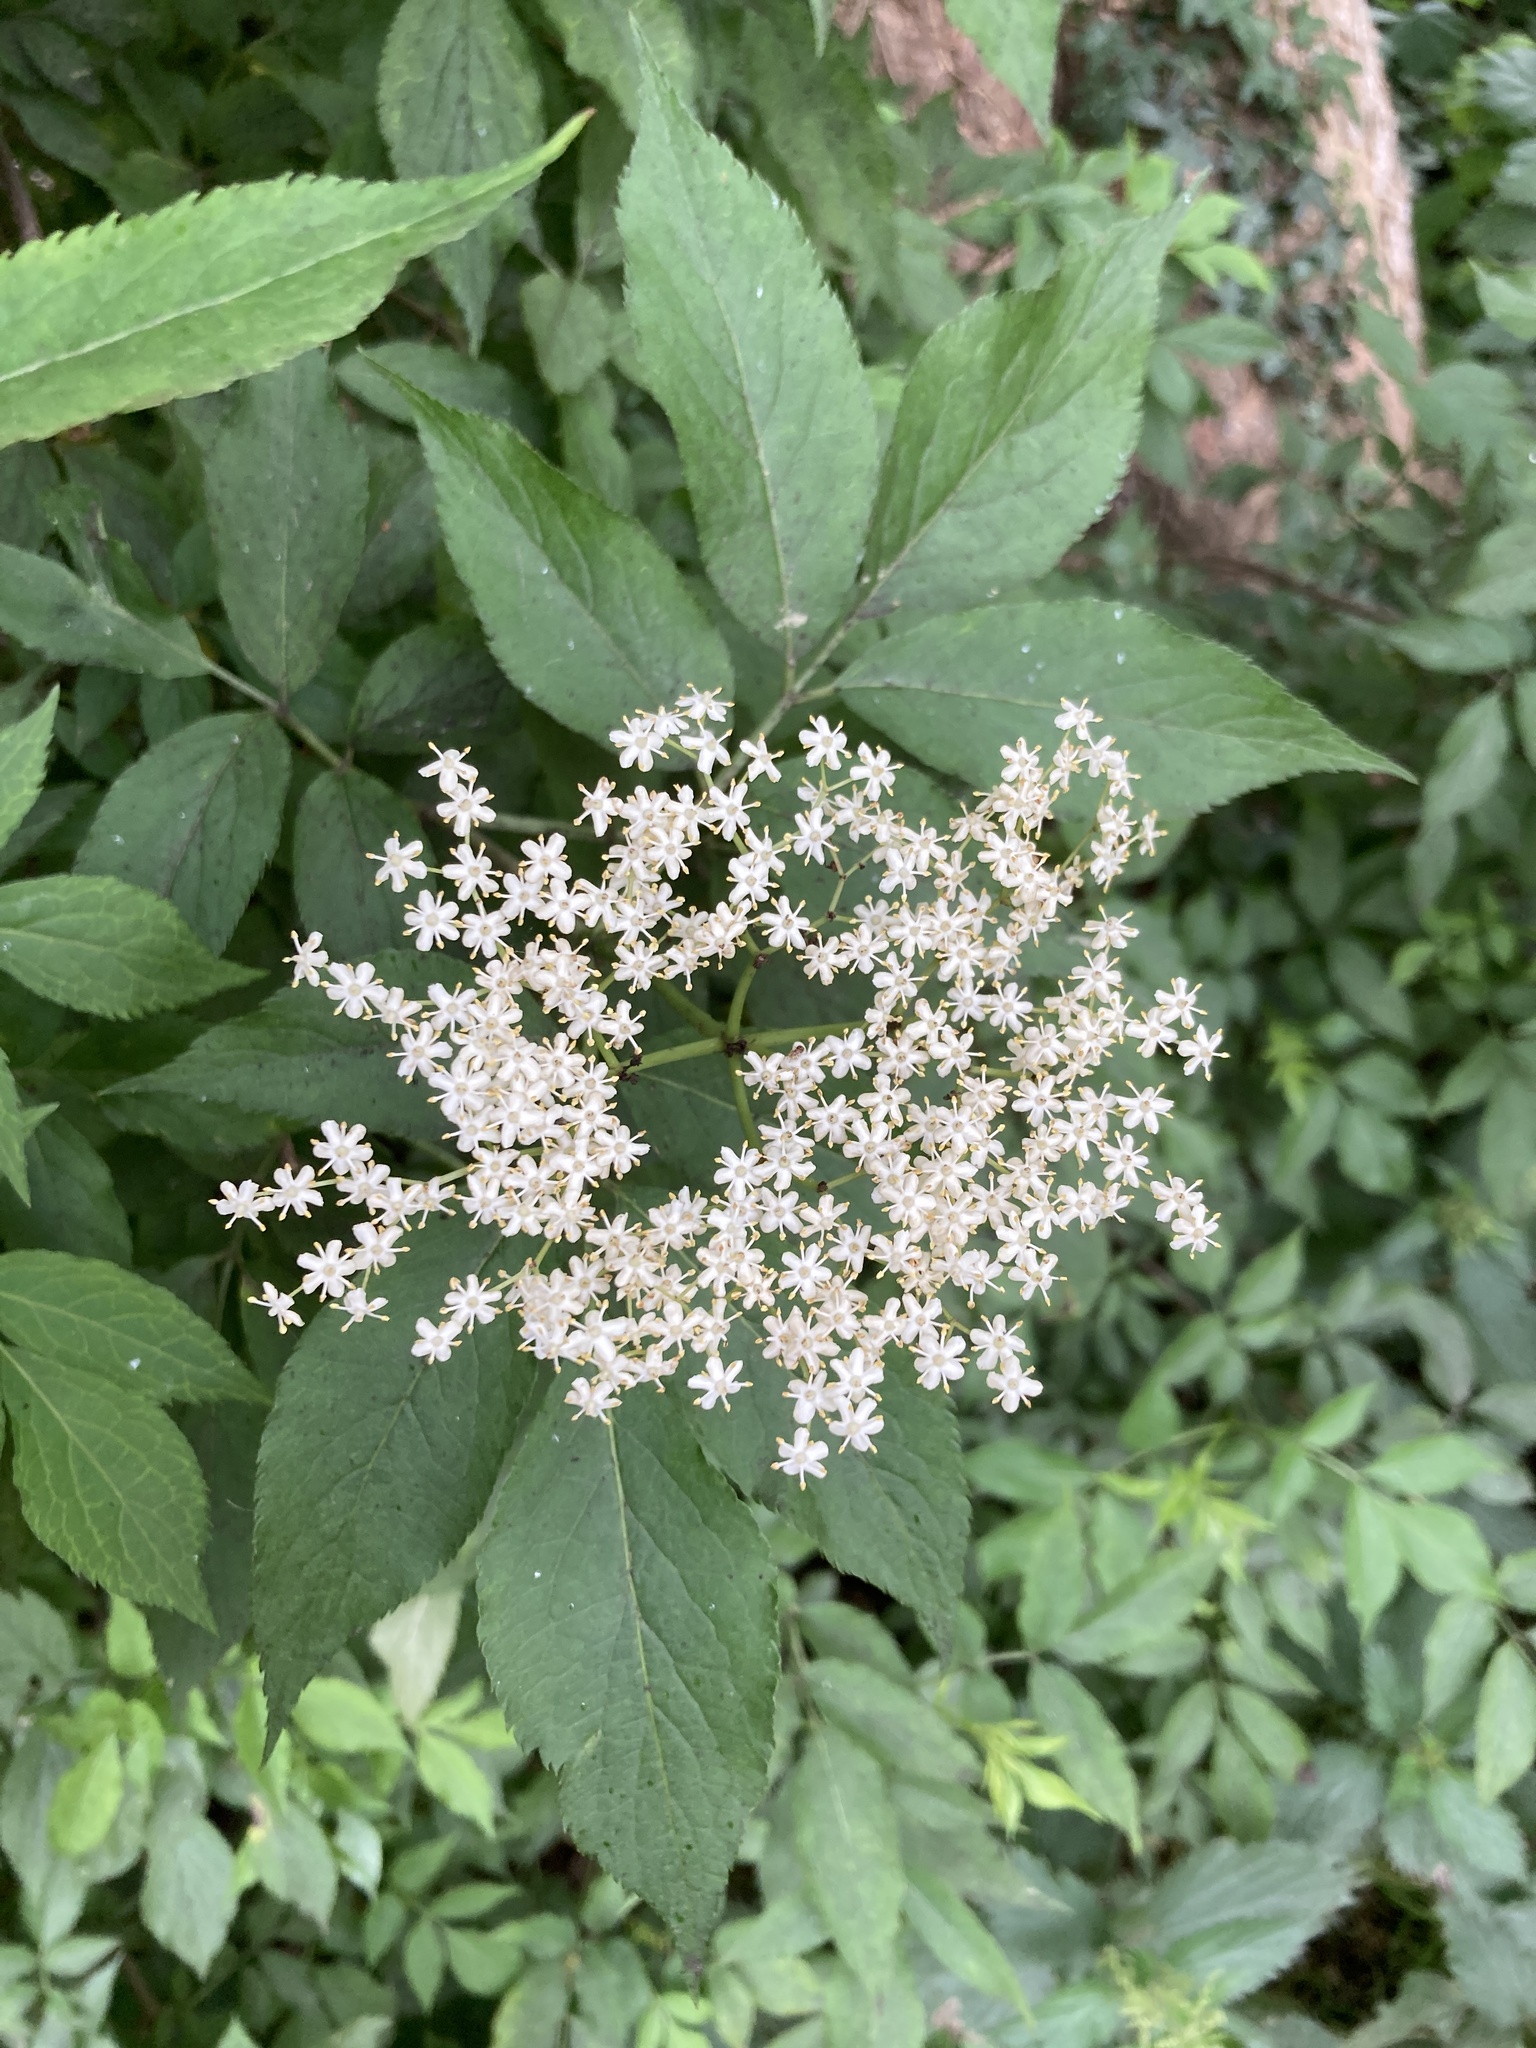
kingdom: Plantae
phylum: Tracheophyta
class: Magnoliopsida
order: Dipsacales
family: Viburnaceae
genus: Sambucus
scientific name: Sambucus nigra
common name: Elder
